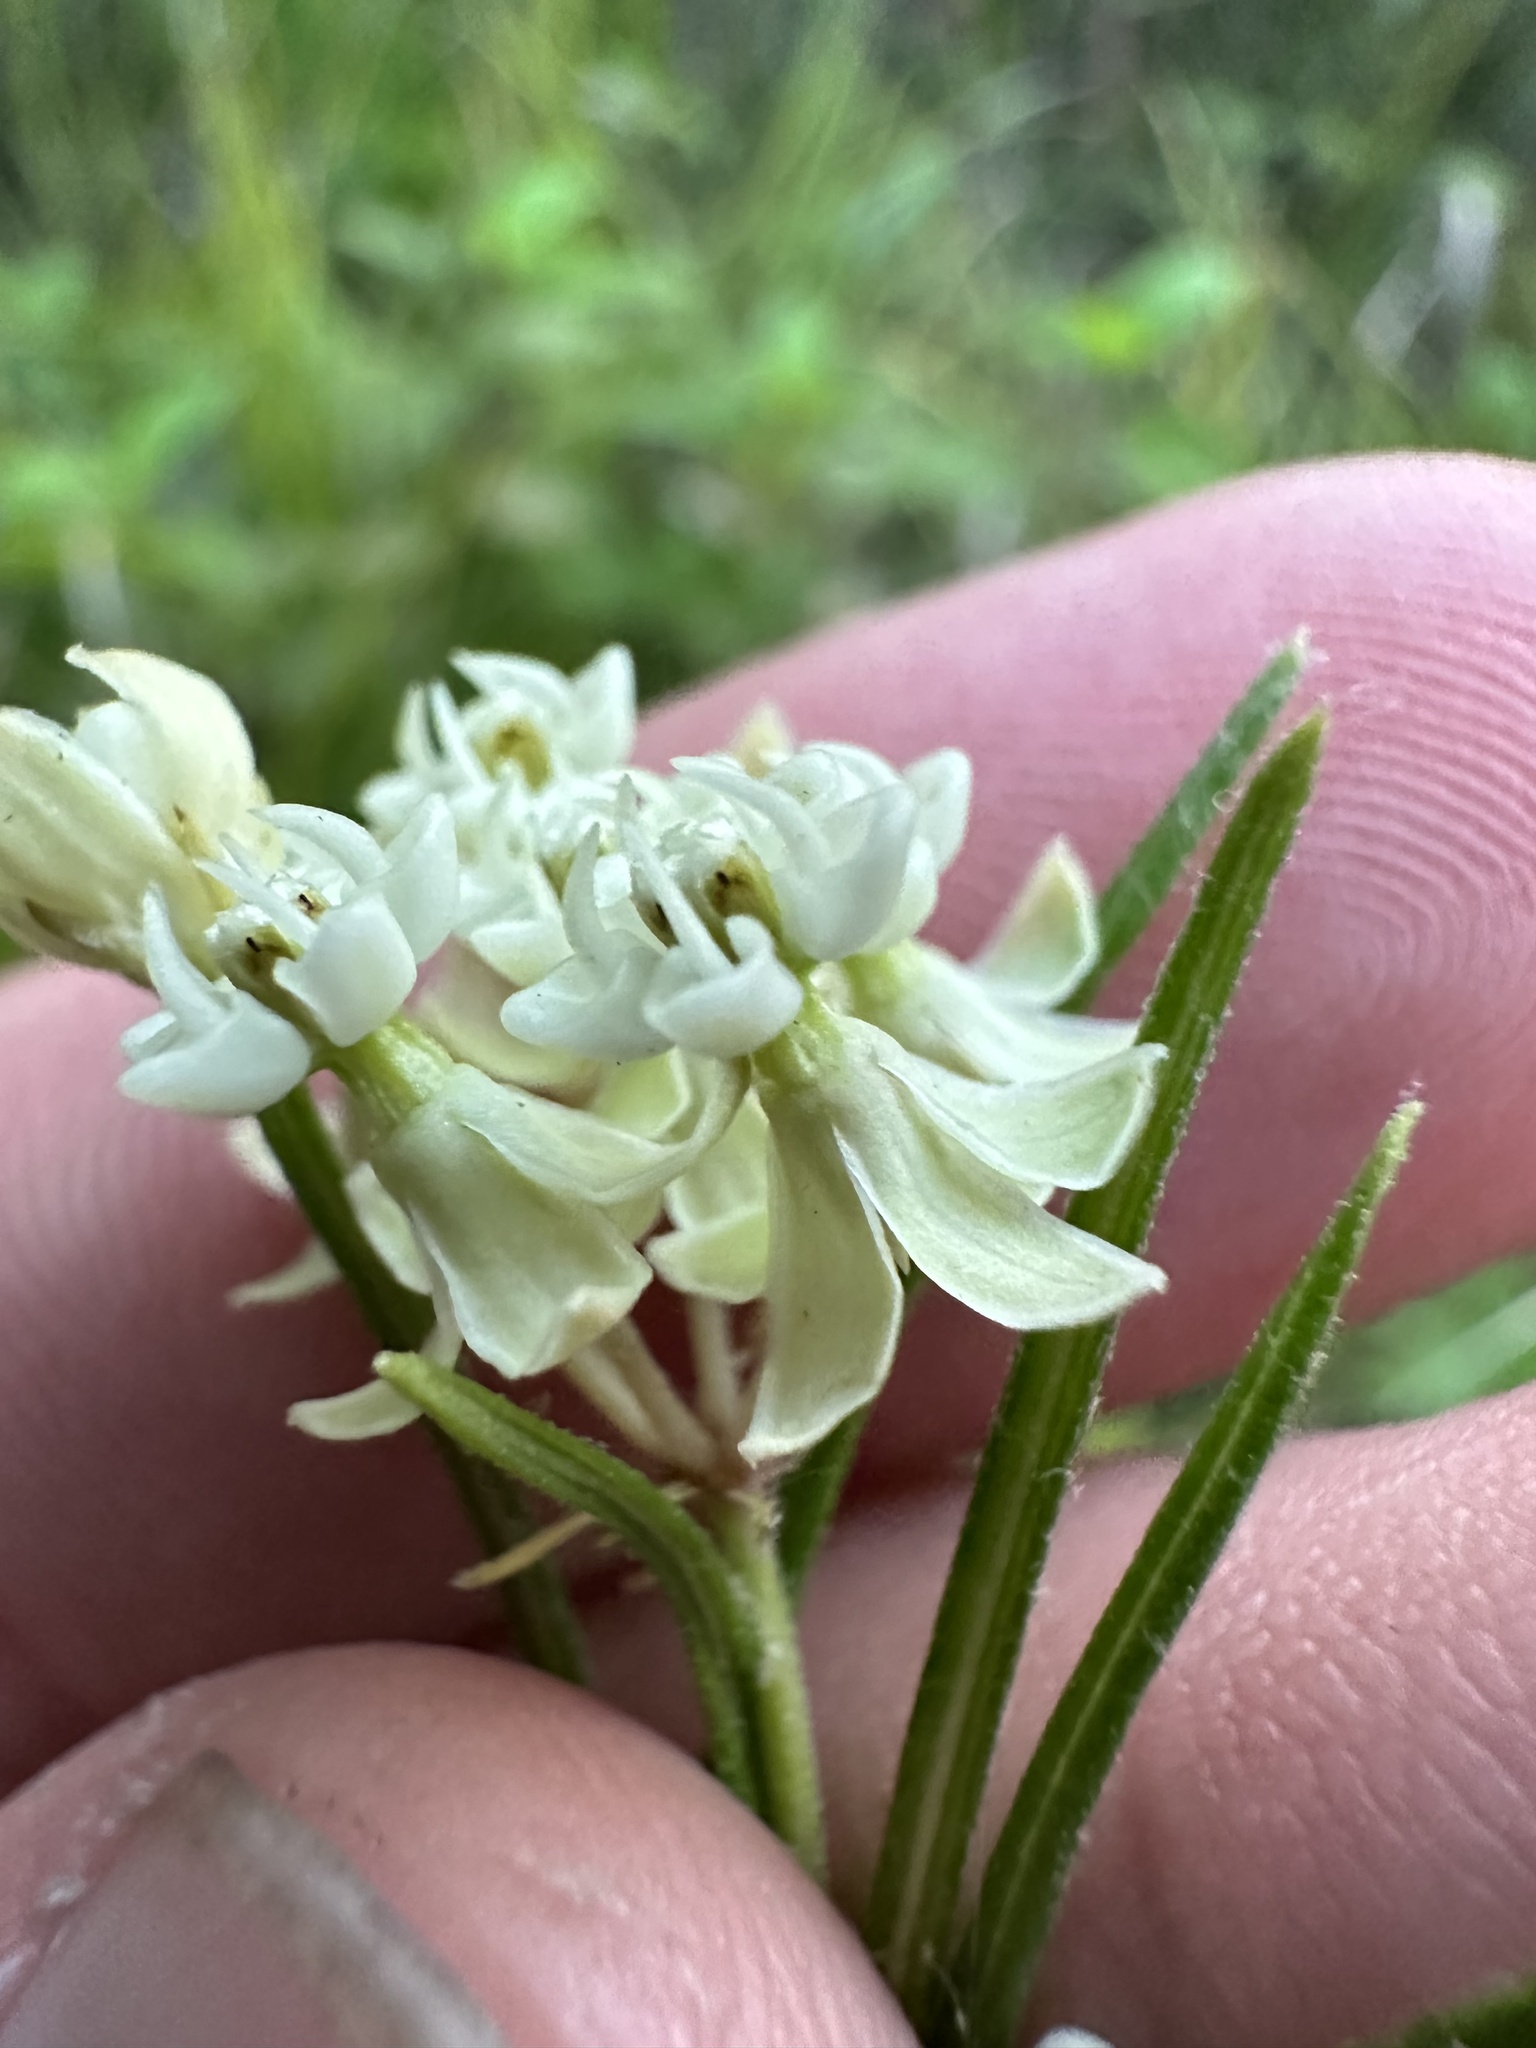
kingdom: Plantae
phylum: Tracheophyta
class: Magnoliopsida
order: Gentianales
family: Apocynaceae
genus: Asclepias
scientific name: Asclepias verticillata
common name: Eastern whorled milkweed
